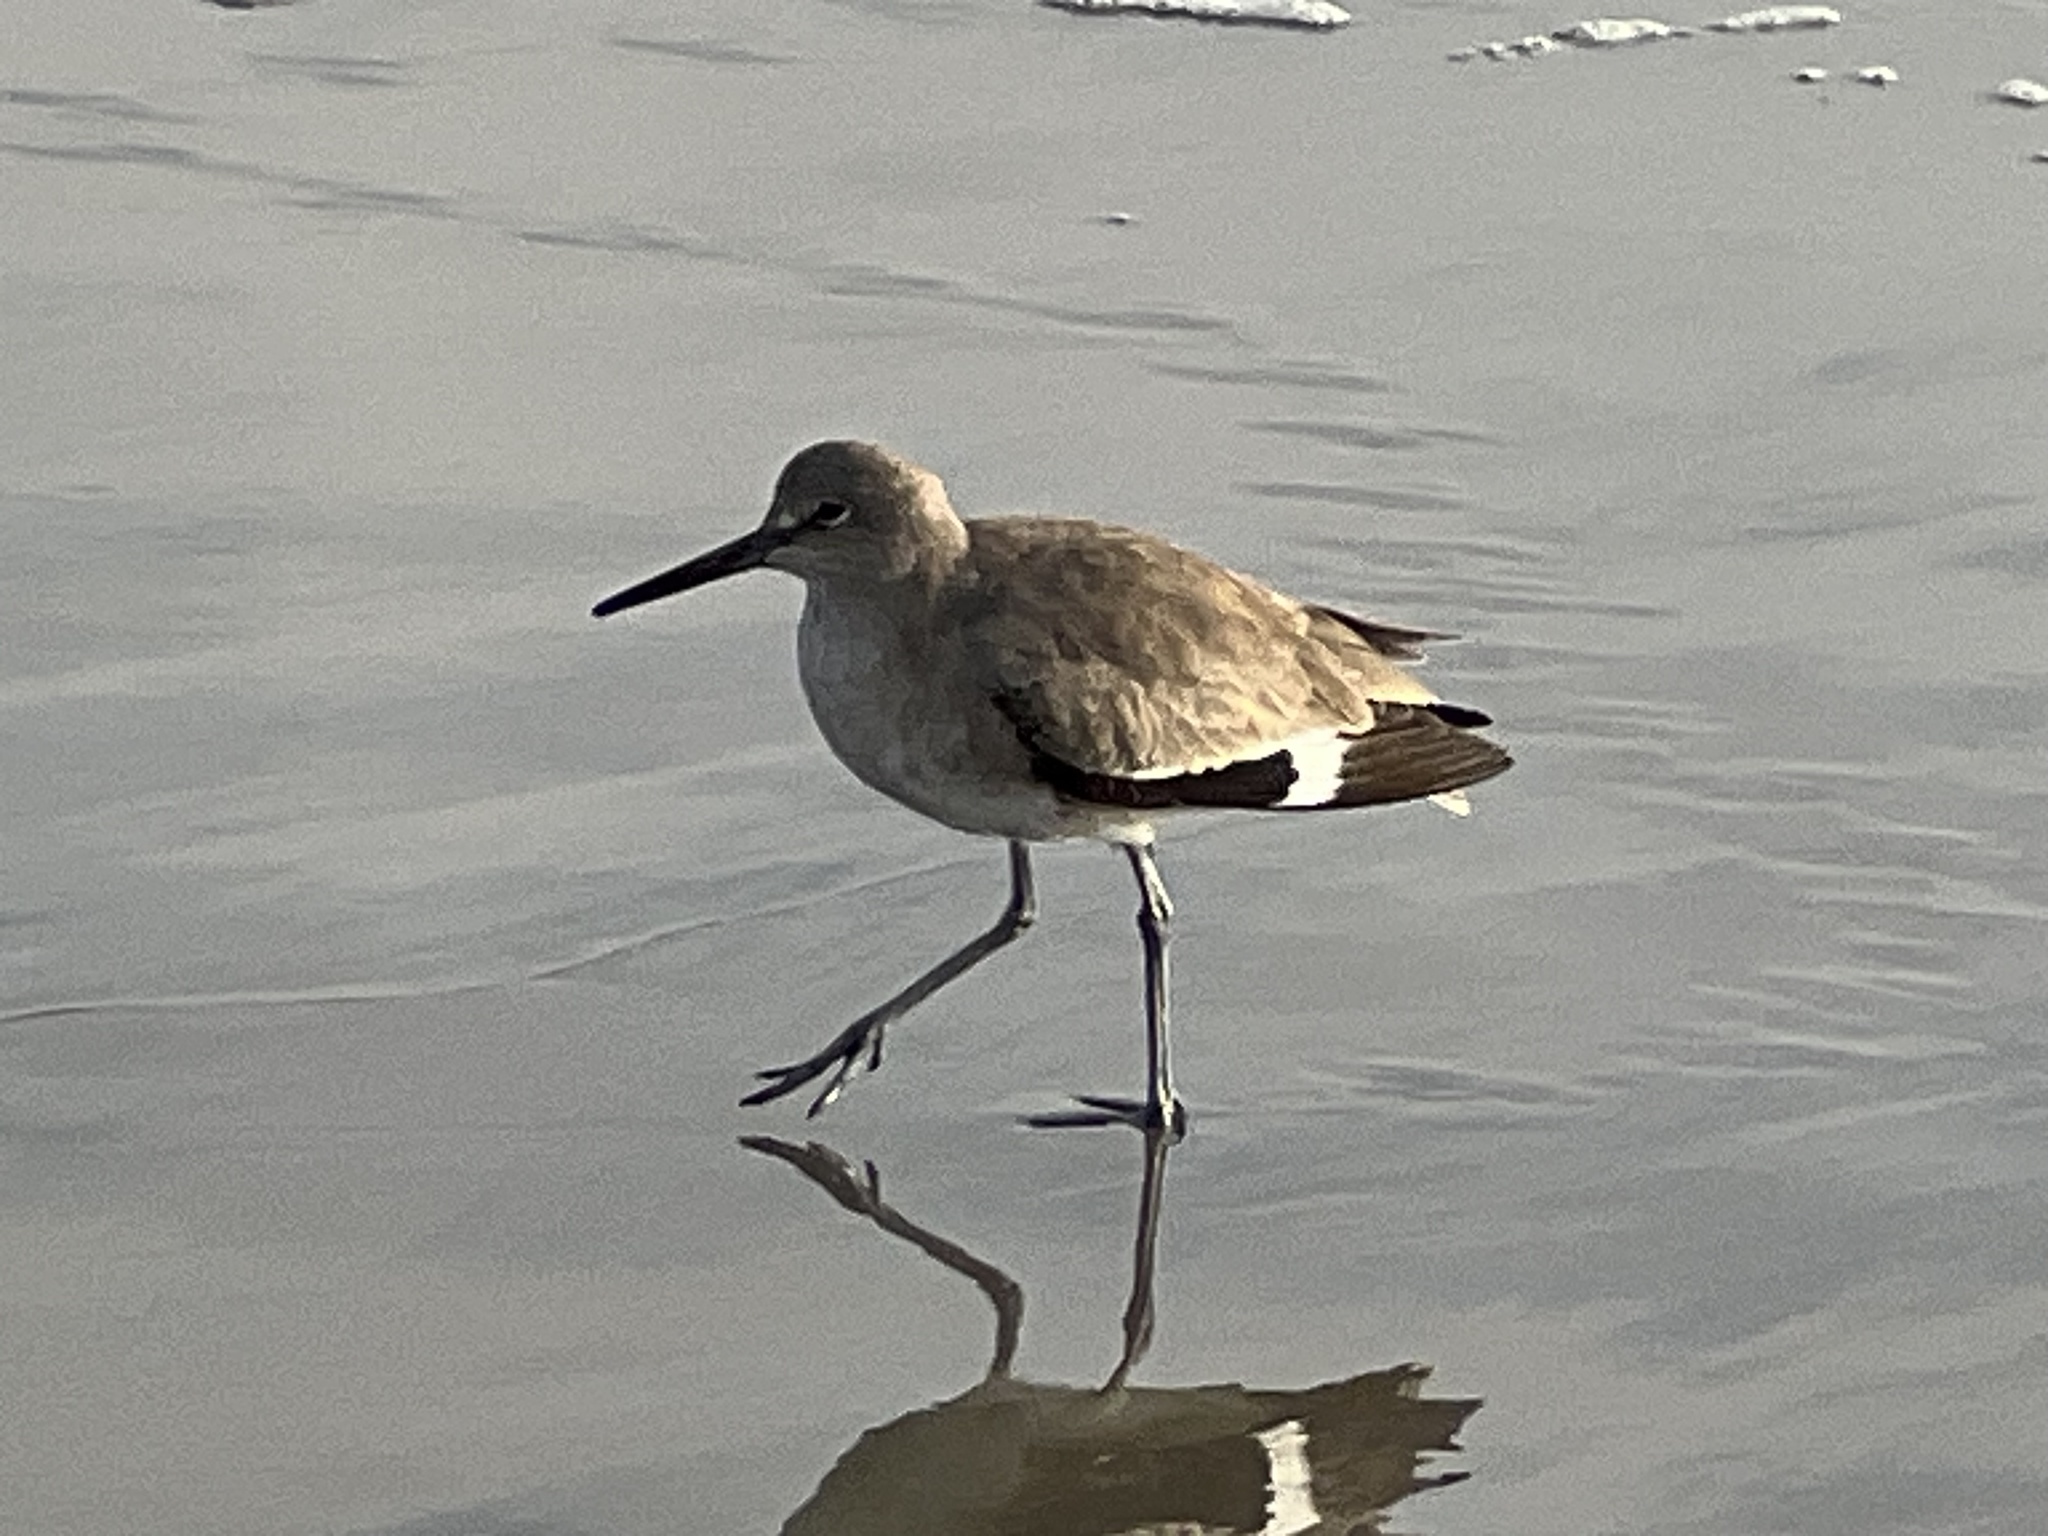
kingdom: Animalia
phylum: Chordata
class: Aves
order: Charadriiformes
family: Scolopacidae
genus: Tringa
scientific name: Tringa semipalmata
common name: Willet
